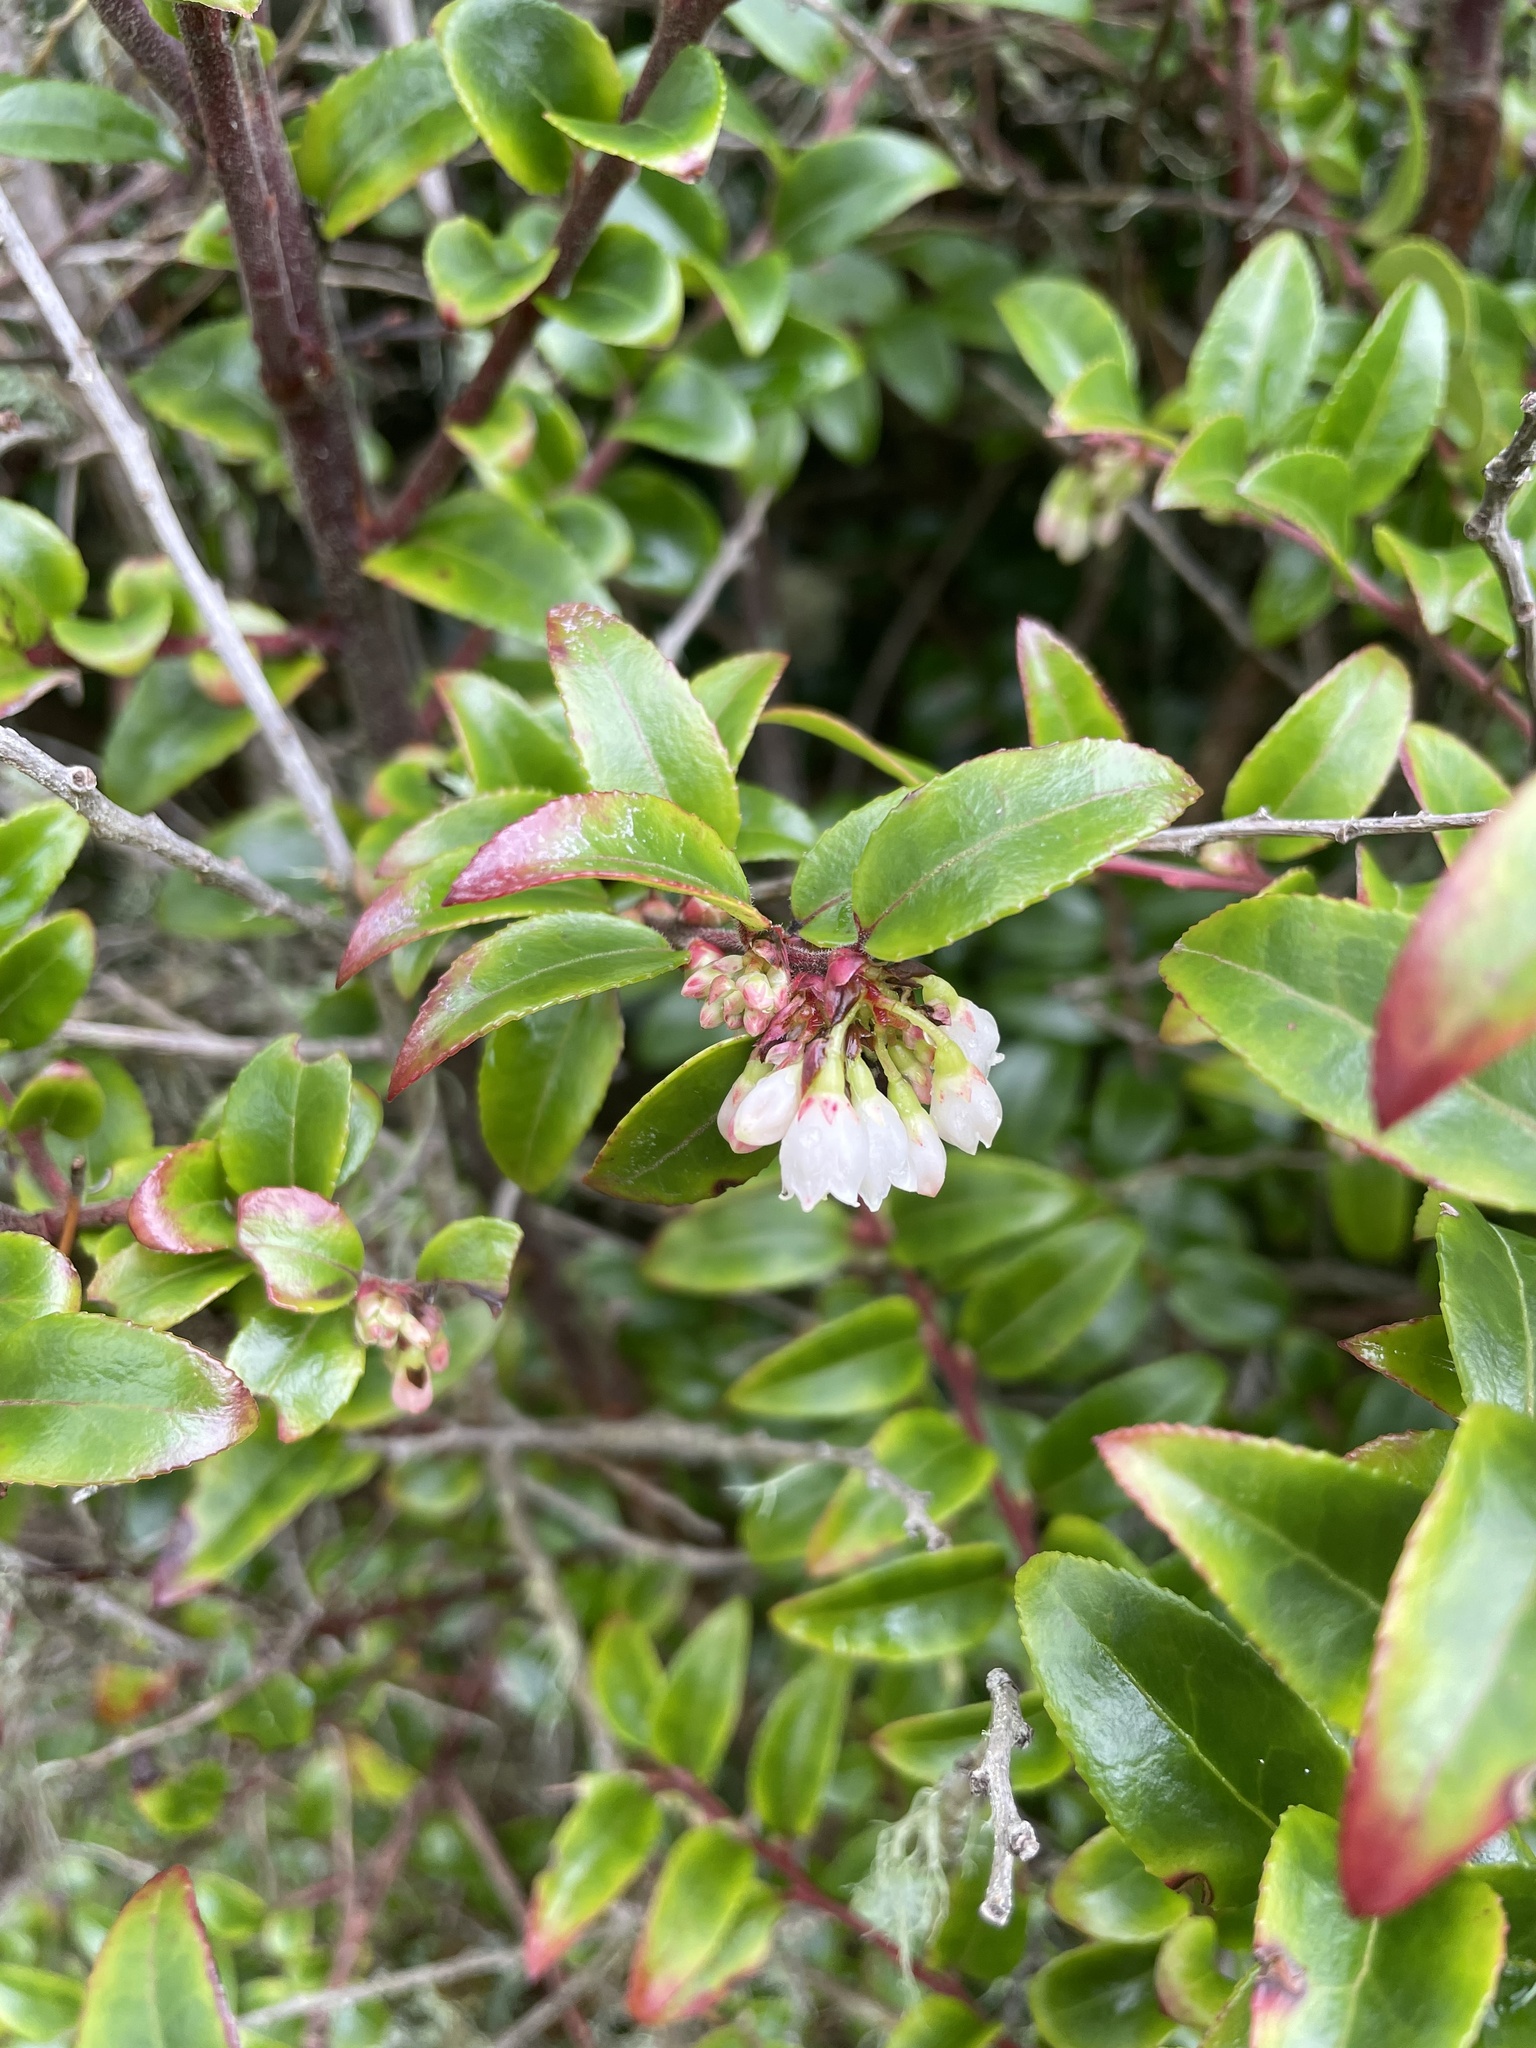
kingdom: Plantae
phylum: Tracheophyta
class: Magnoliopsida
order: Ericales
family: Ericaceae
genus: Vaccinium
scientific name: Vaccinium ovatum
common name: California-huckleberry
